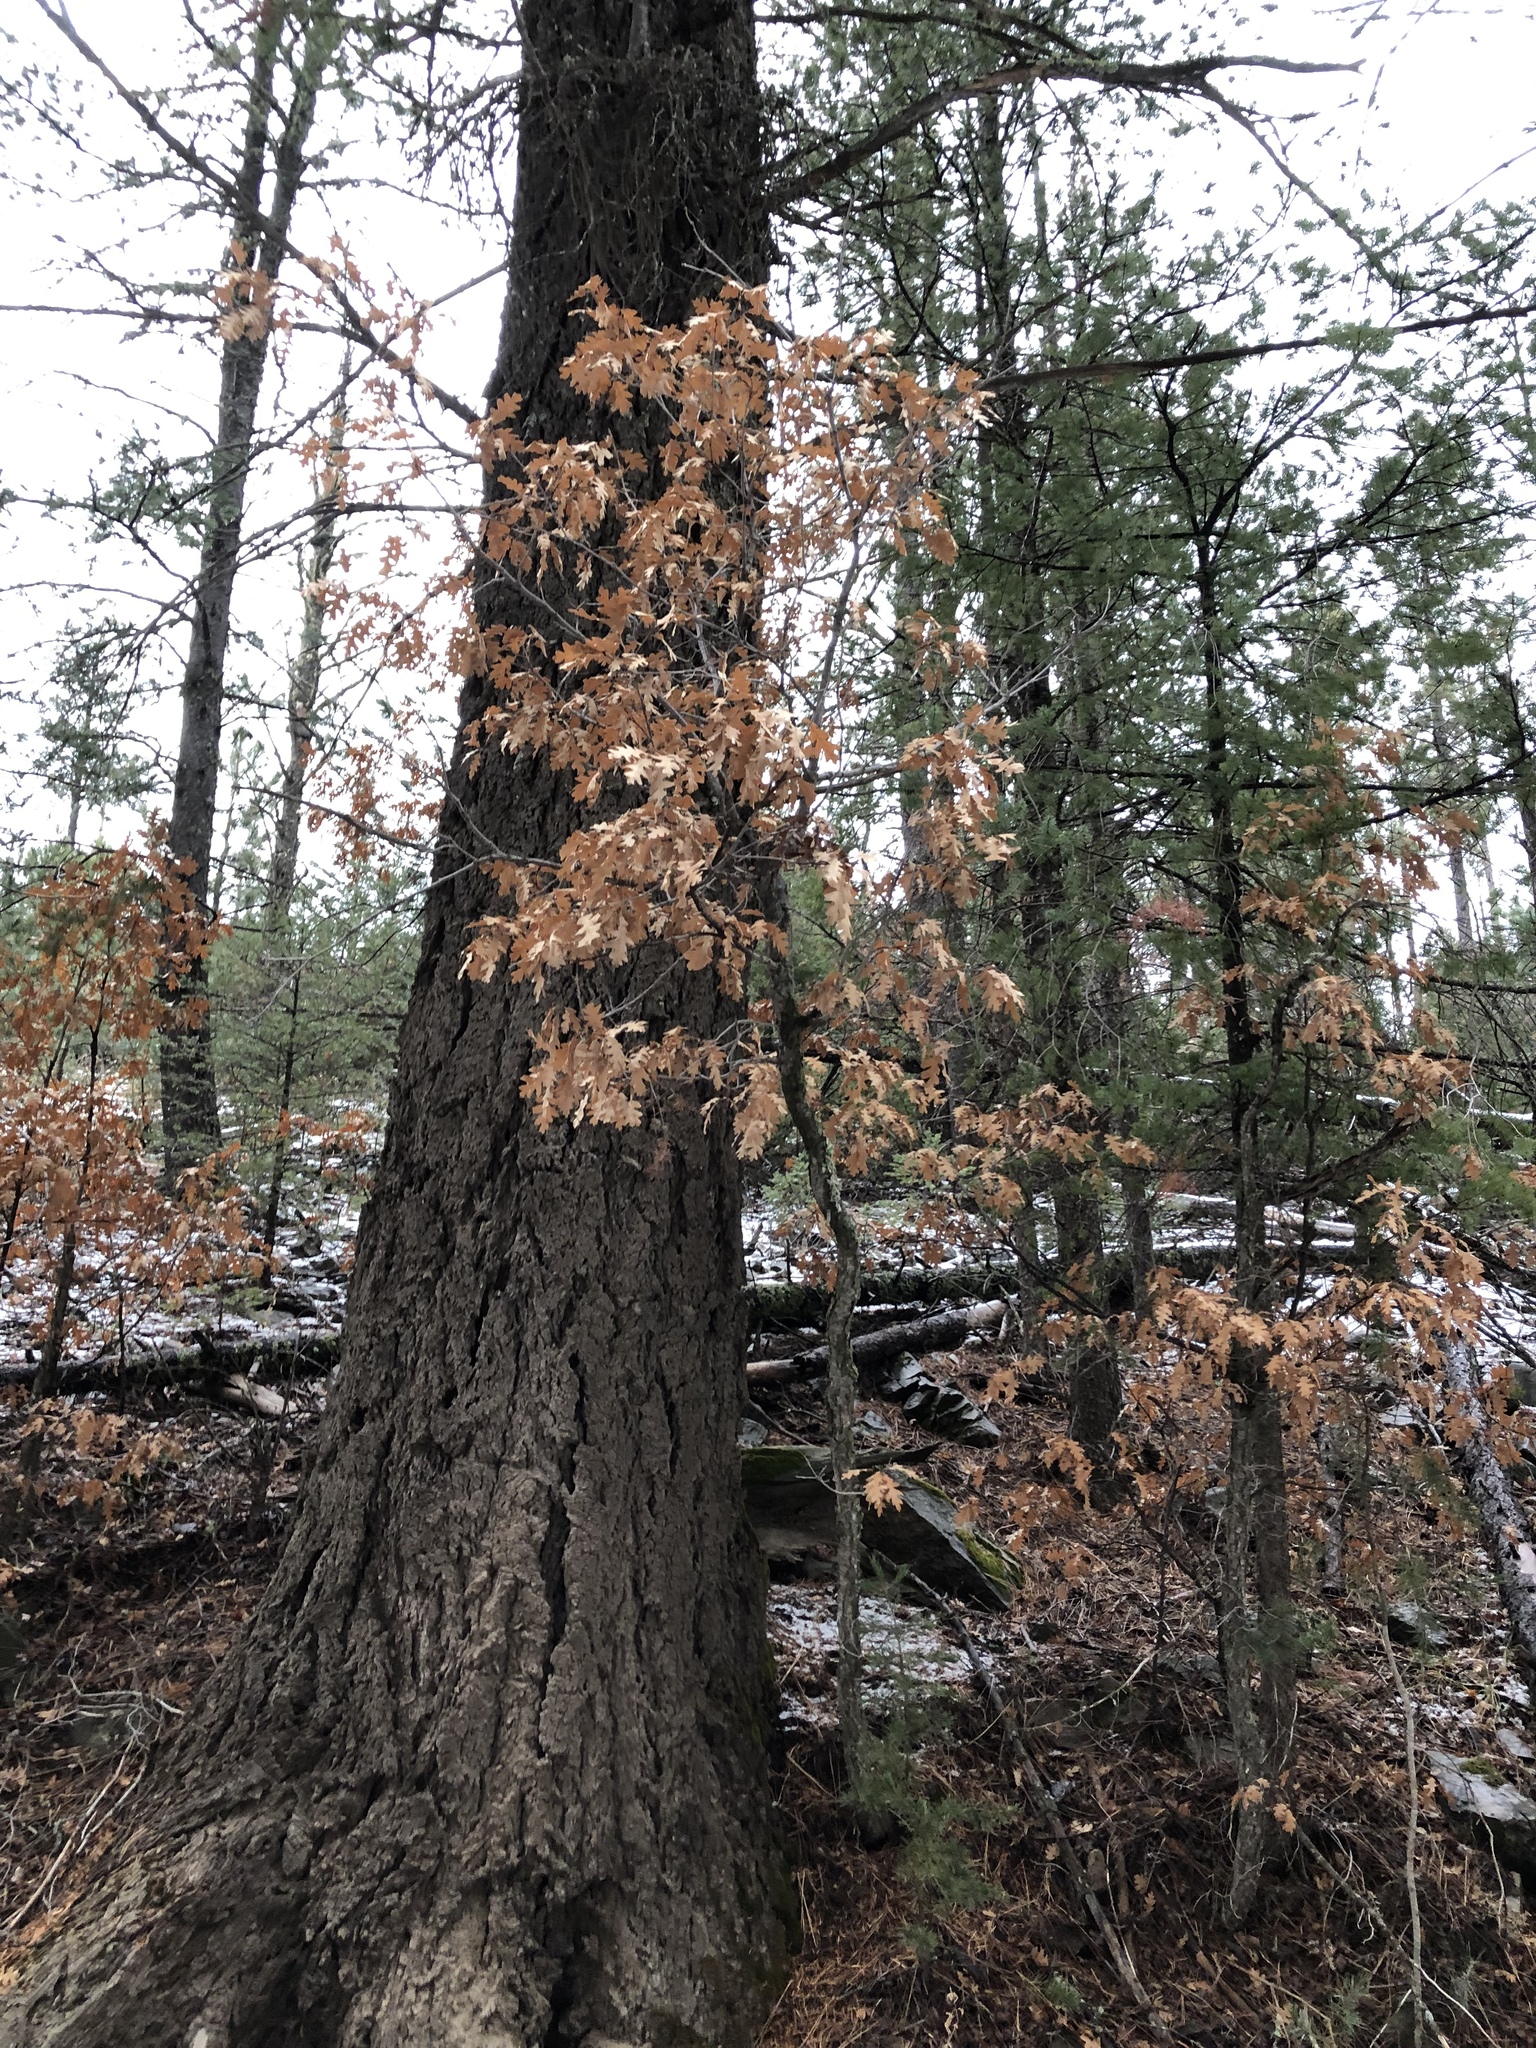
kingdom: Plantae
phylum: Tracheophyta
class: Magnoliopsida
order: Fagales
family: Fagaceae
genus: Quercus
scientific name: Quercus gambelii
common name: Gambel oak
